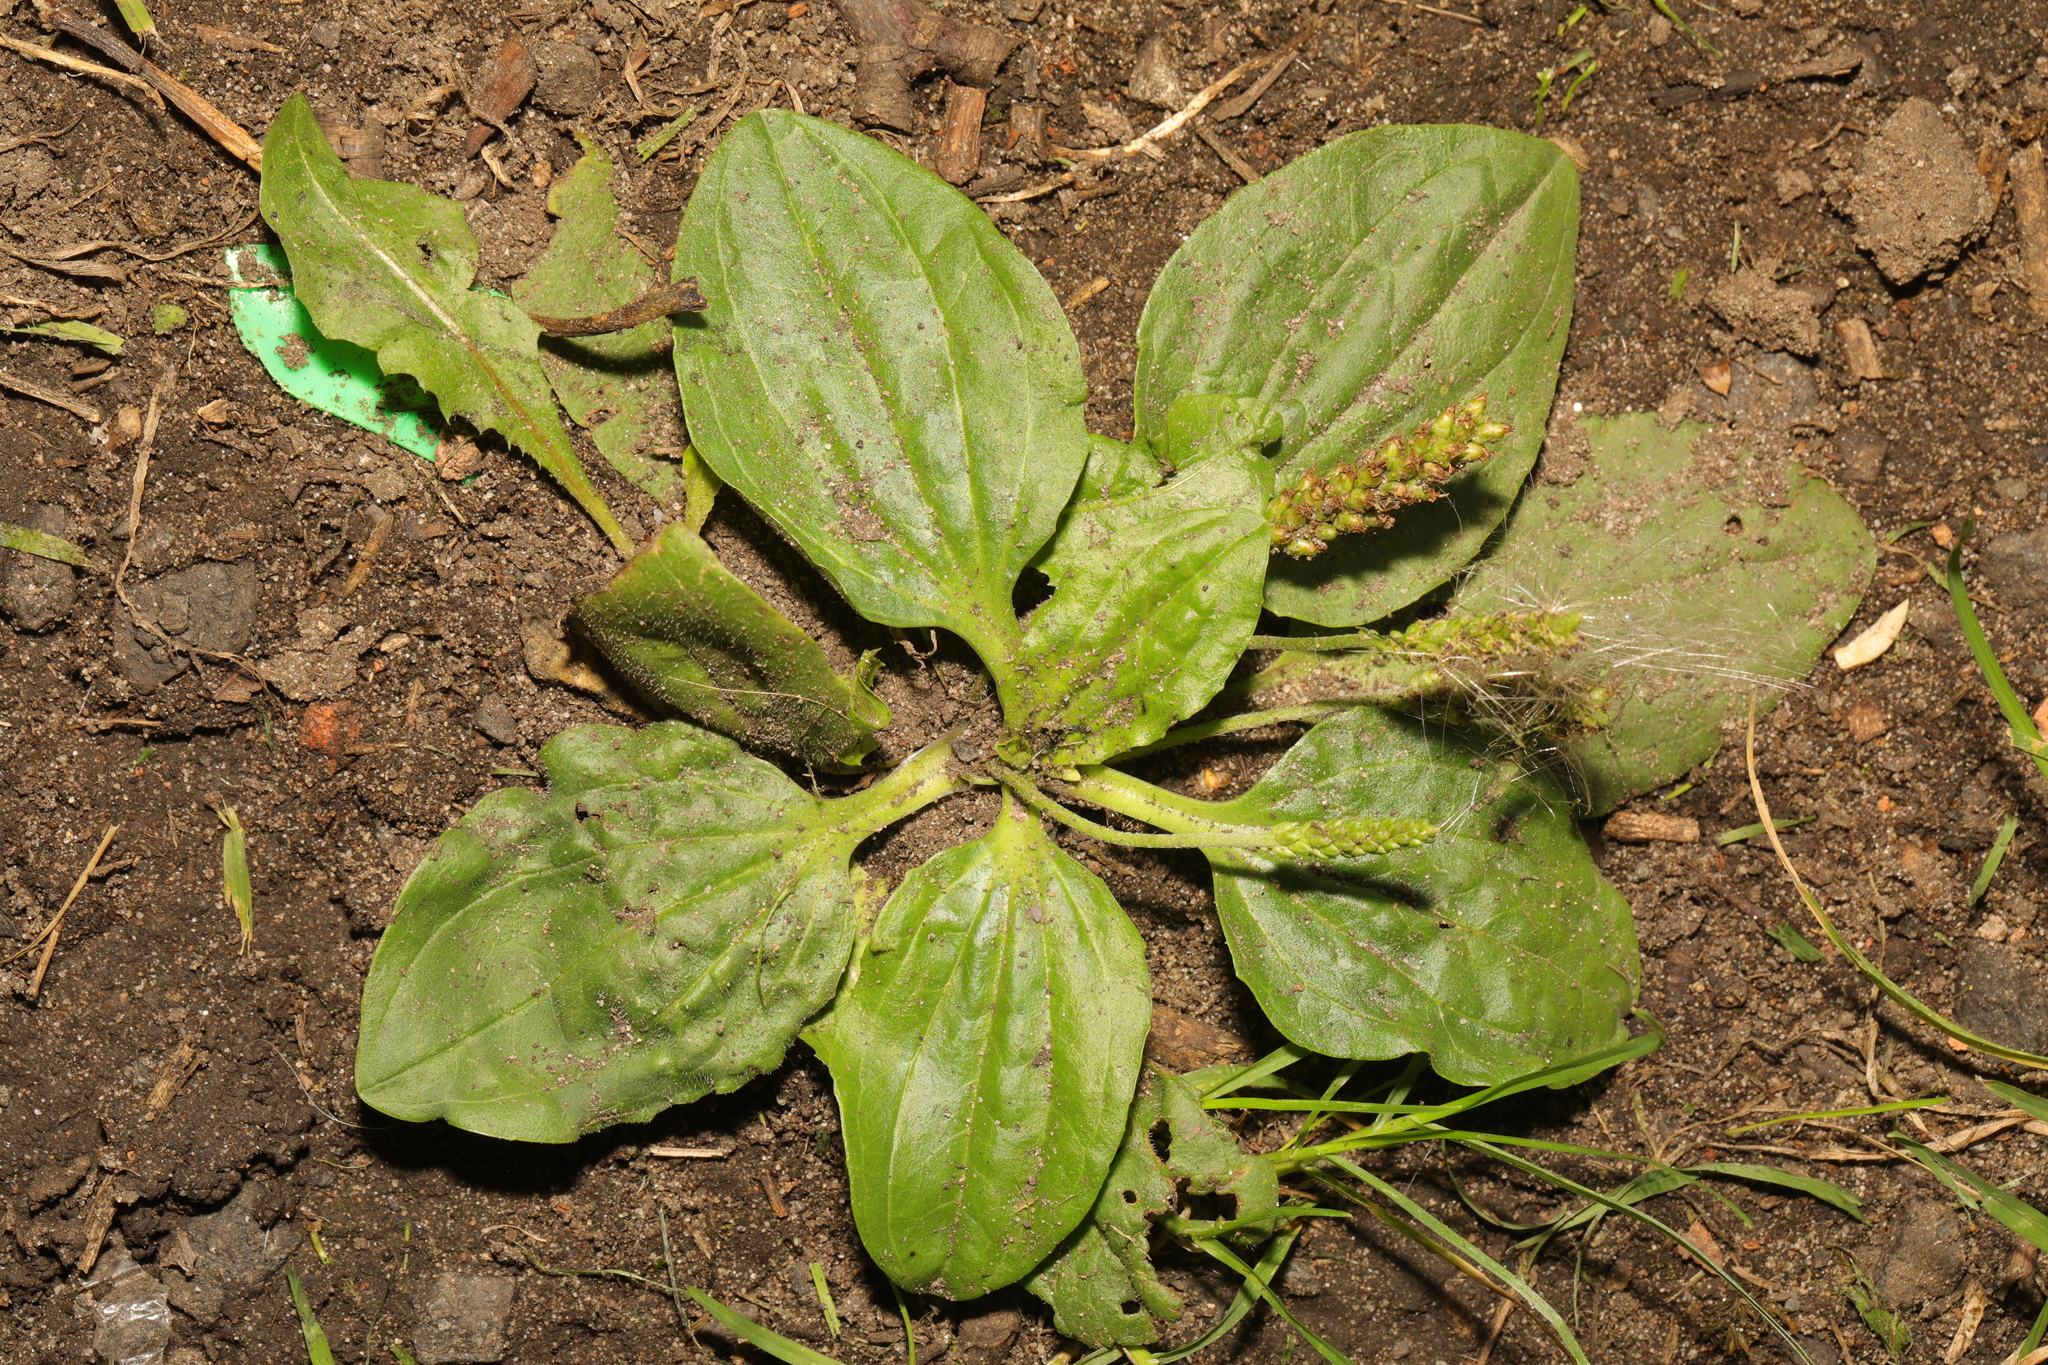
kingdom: Plantae
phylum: Tracheophyta
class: Magnoliopsida
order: Lamiales
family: Plantaginaceae
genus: Plantago
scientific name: Plantago major
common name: Common plantain
